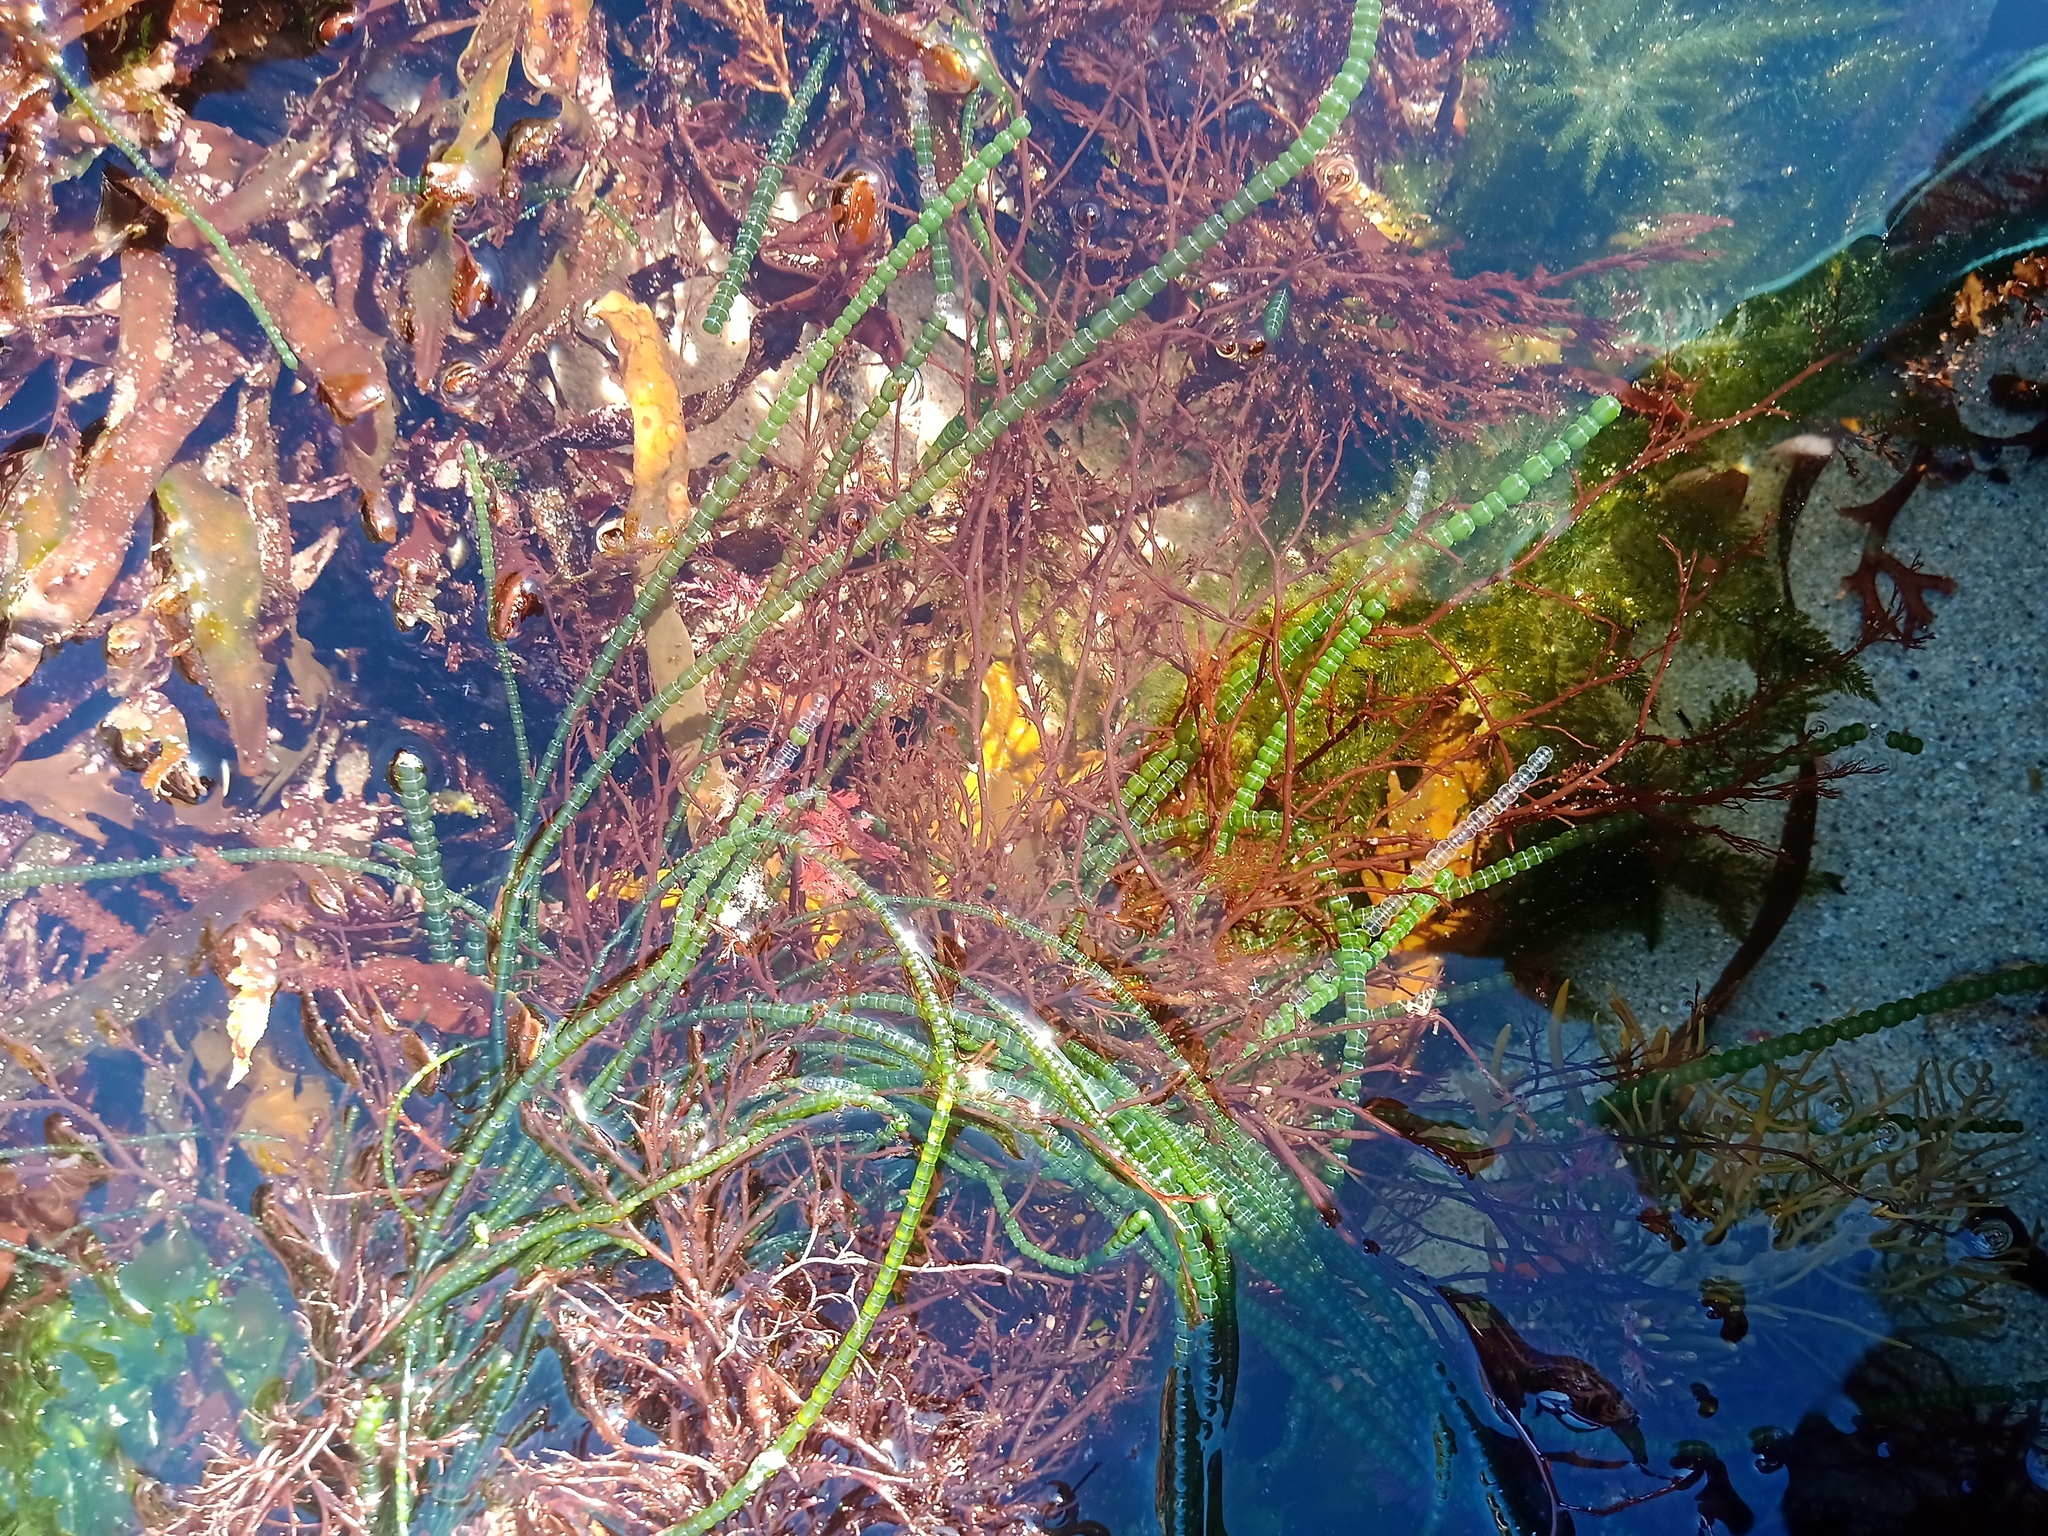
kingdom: Plantae
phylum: Chlorophyta
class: Ulvophyceae
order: Cladophorales
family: Cladophoraceae
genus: Chaetomorpha
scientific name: Chaetomorpha coliformis
